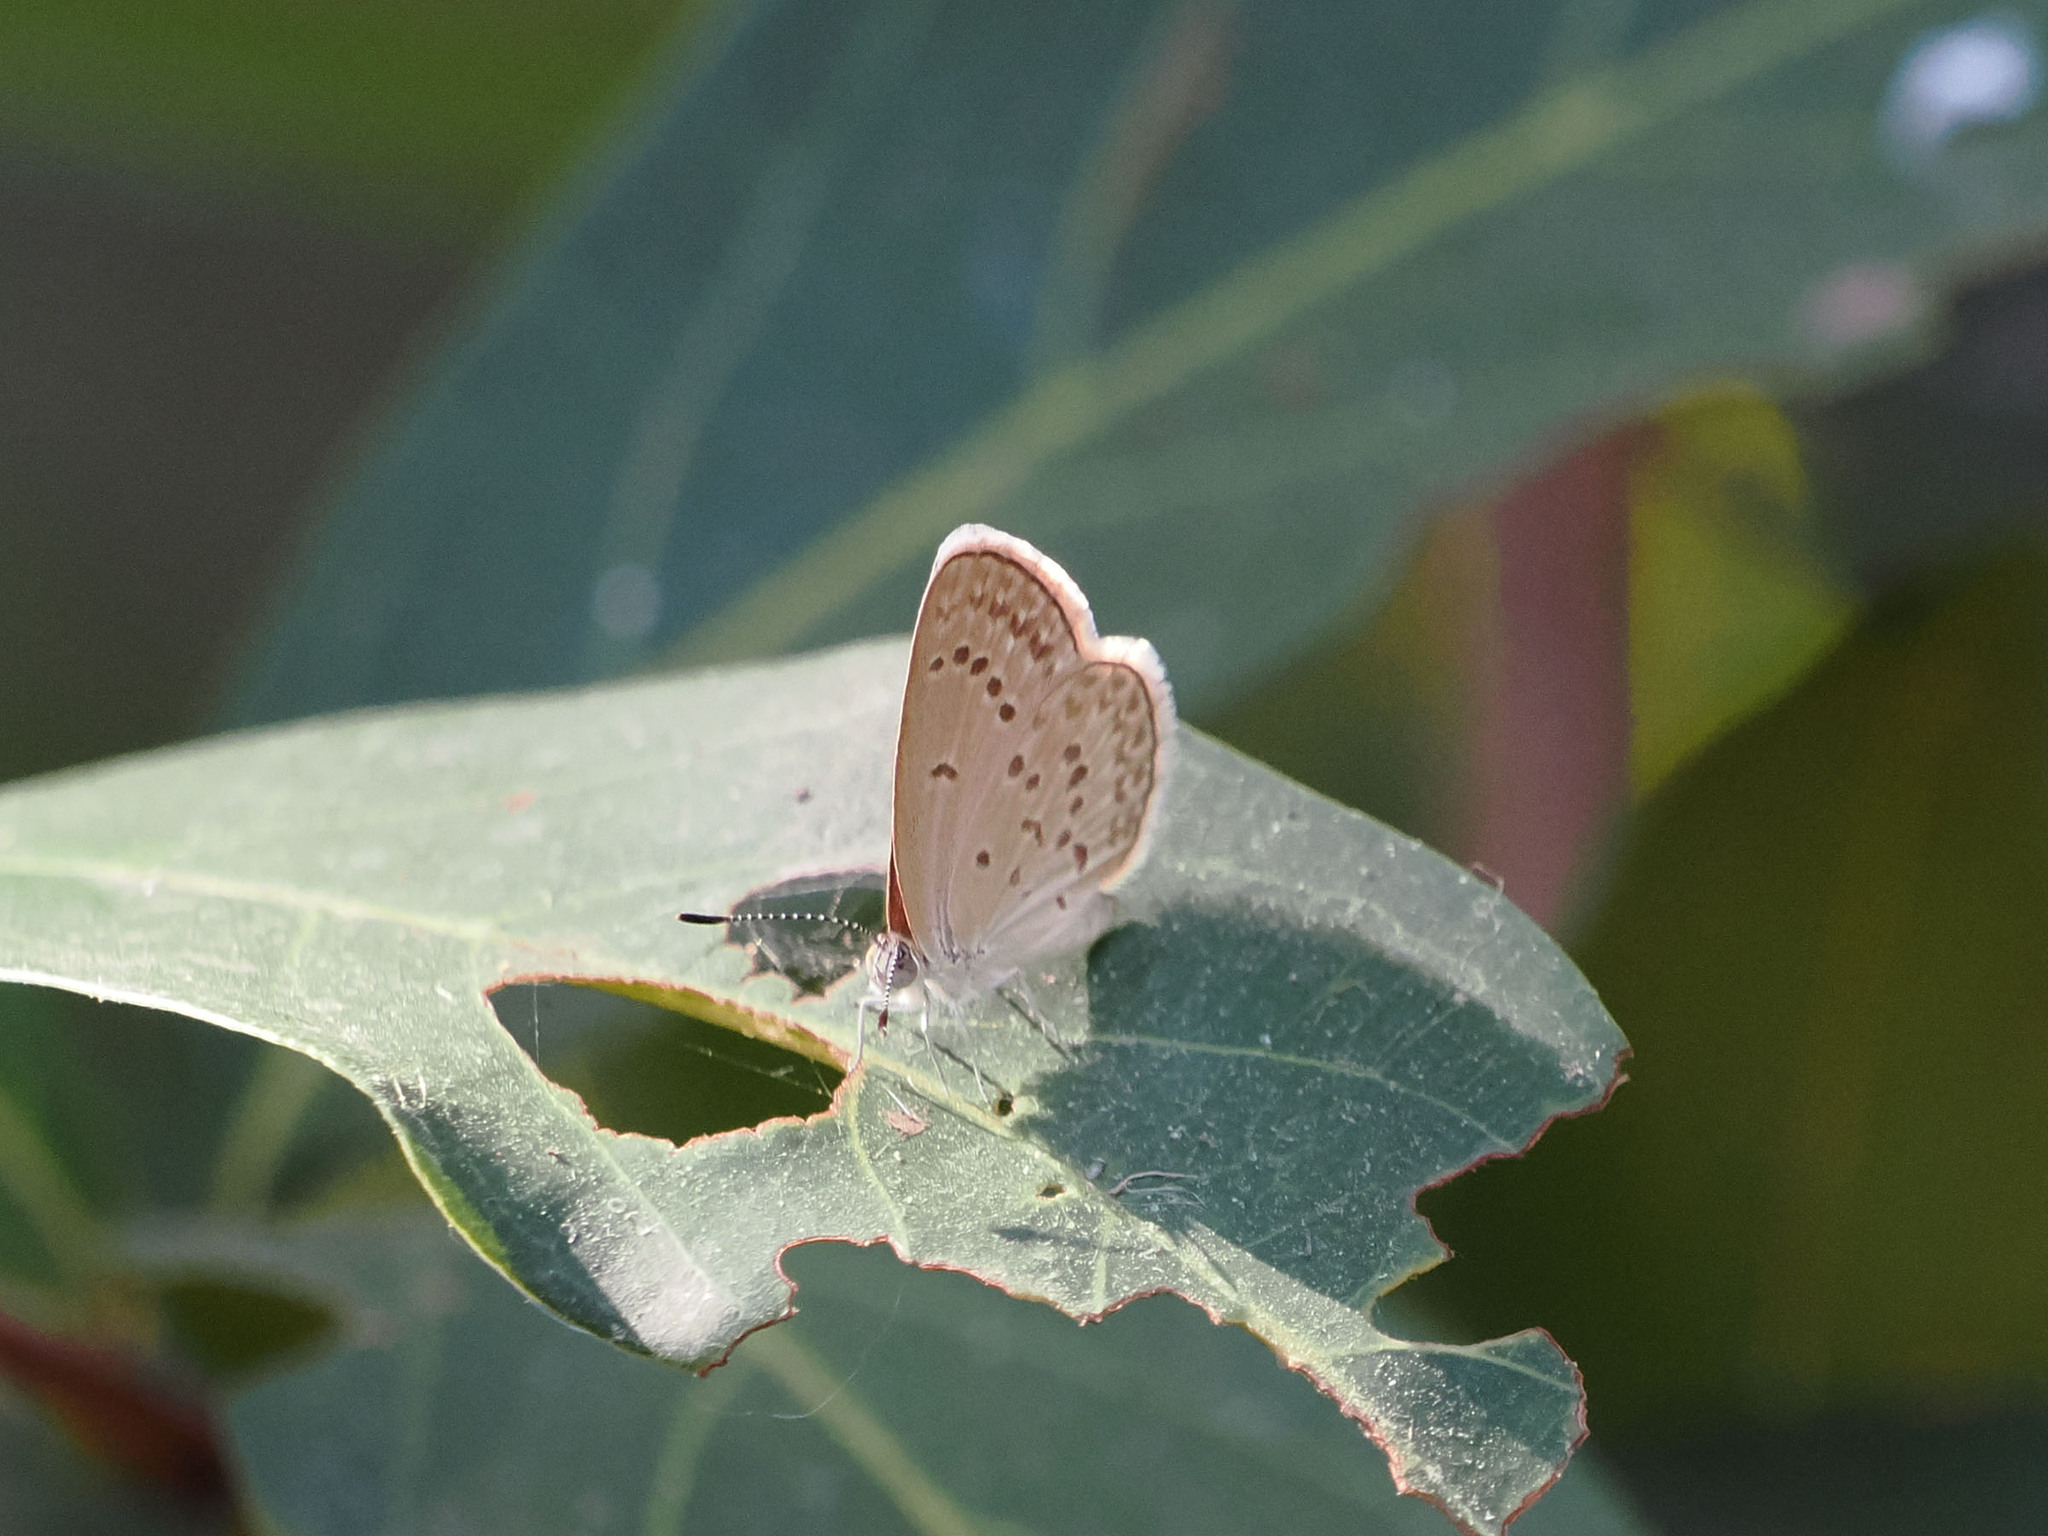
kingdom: Animalia
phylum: Arthropoda
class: Insecta
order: Lepidoptera
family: Lycaenidae
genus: Zizina
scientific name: Zizina otis
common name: Lesser grass blue
